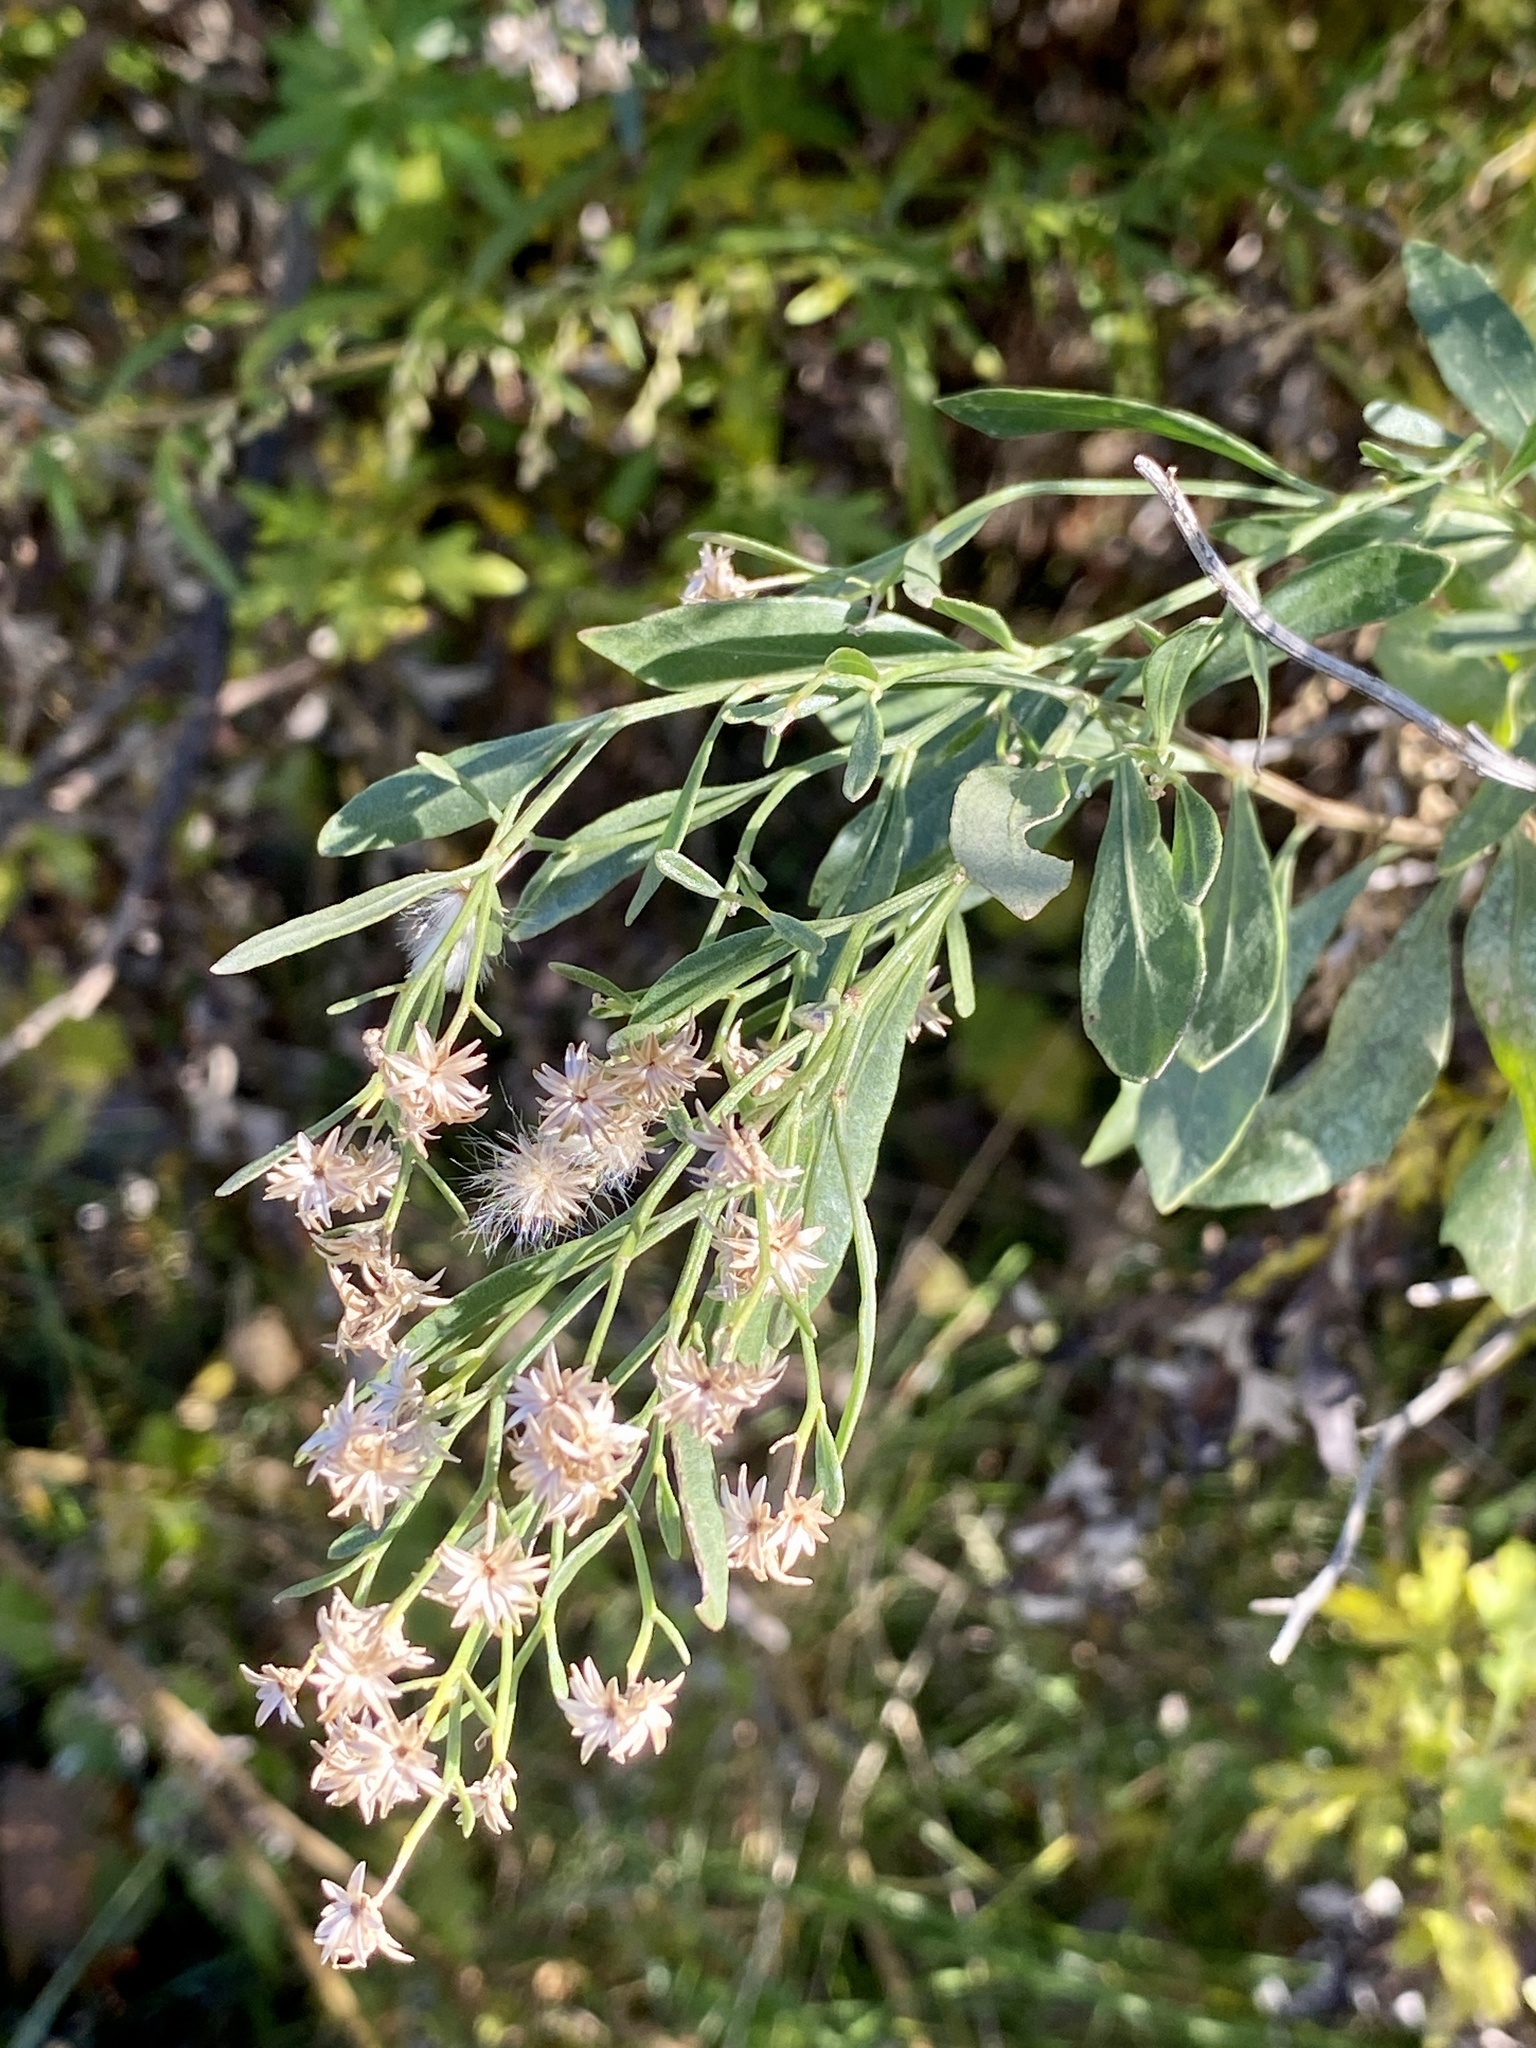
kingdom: Plantae
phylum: Tracheophyta
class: Magnoliopsida
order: Asterales
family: Asteraceae
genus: Baccharis
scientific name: Baccharis halimifolia
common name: Eastern baccharis
